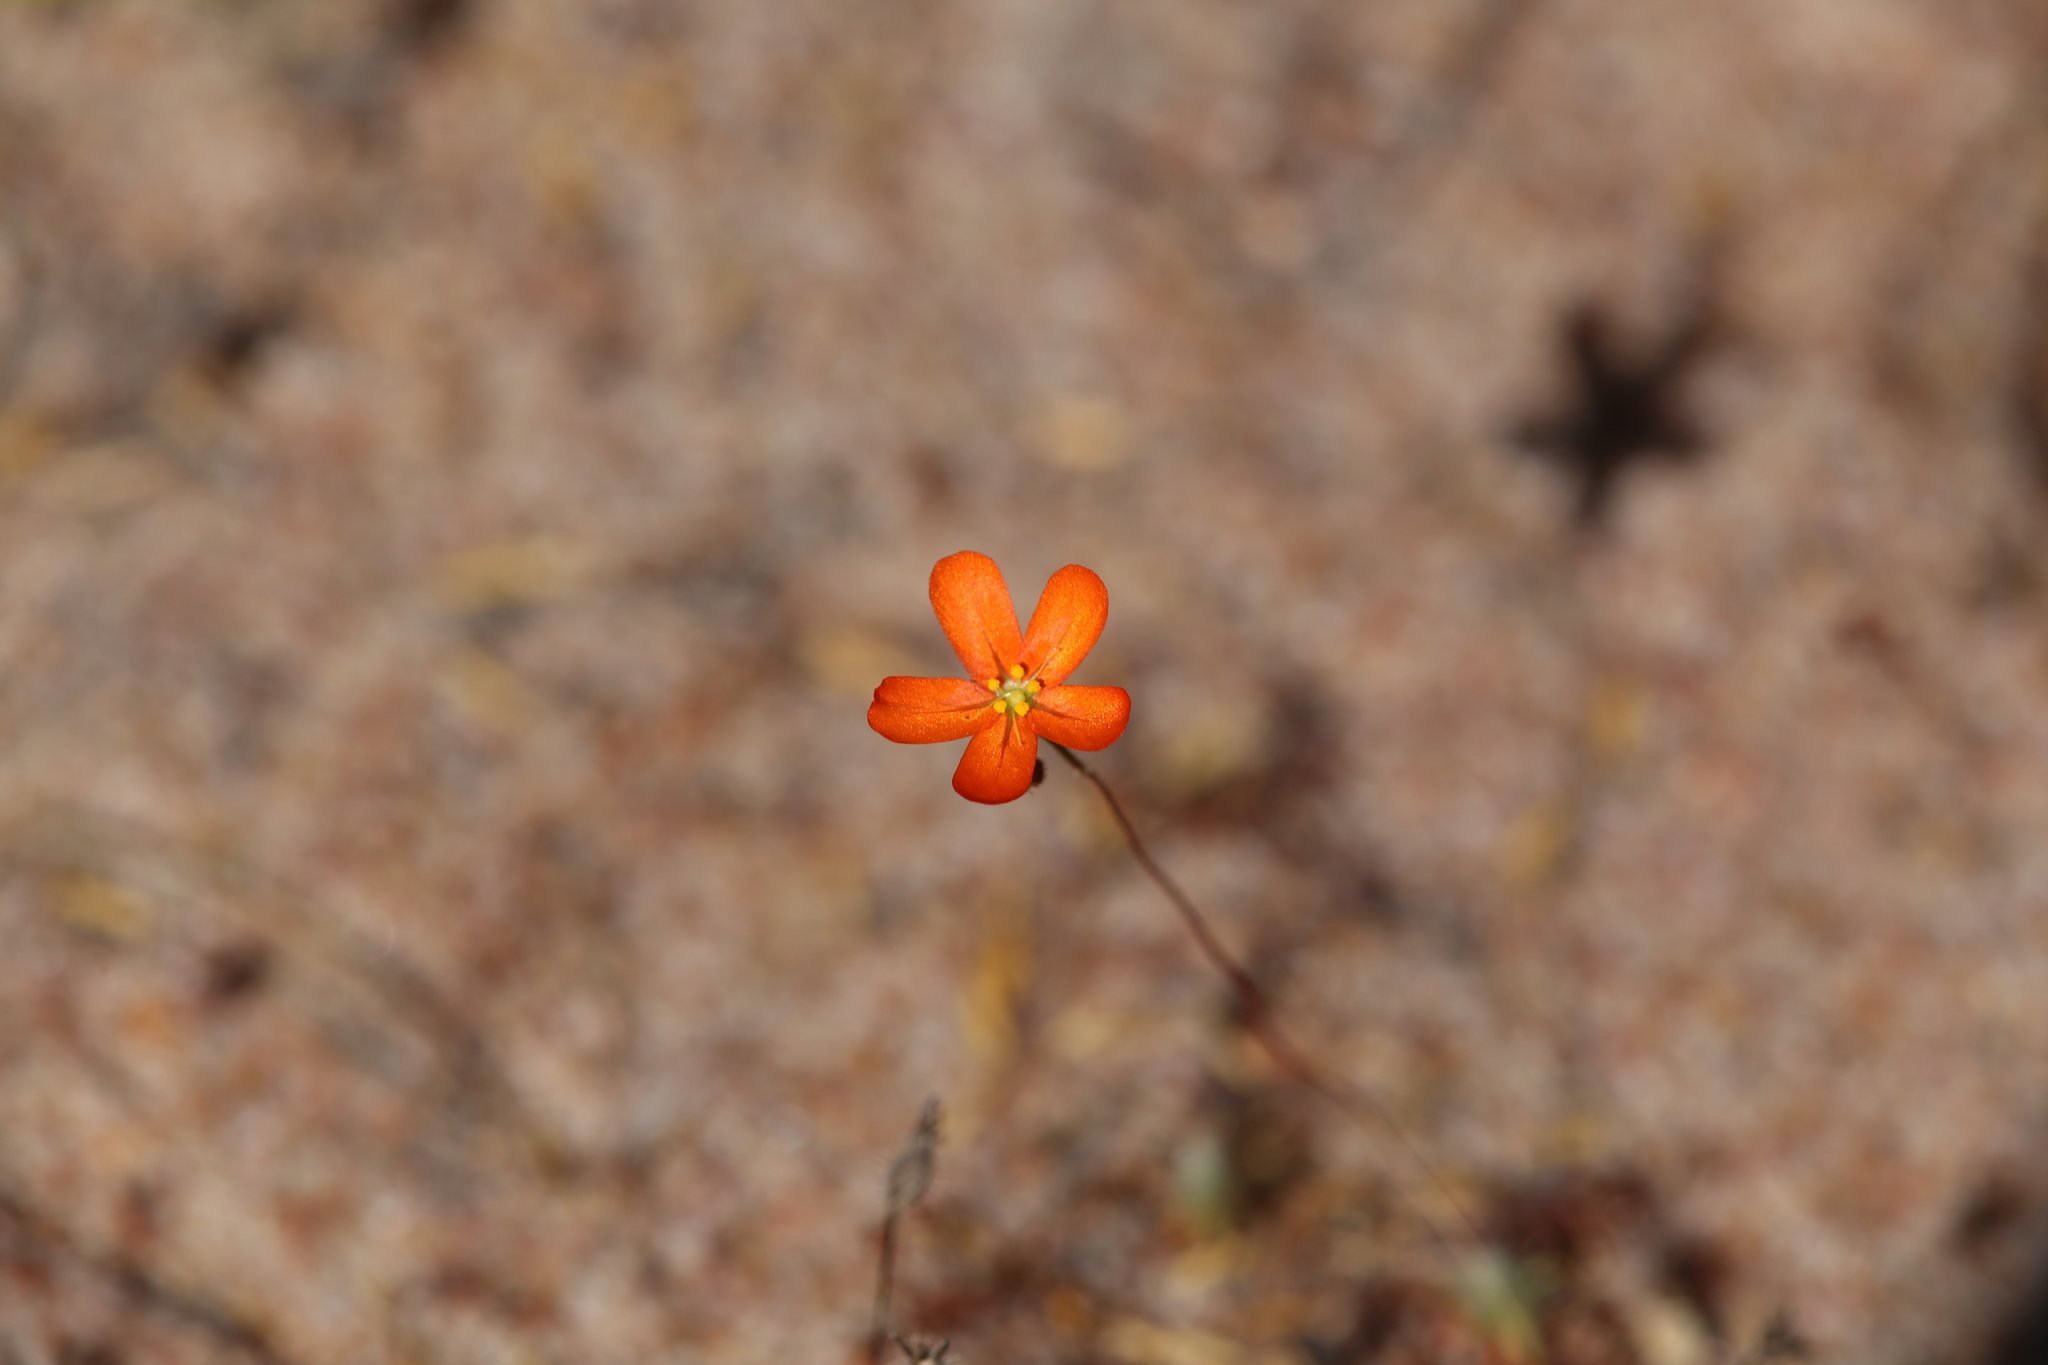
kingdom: Plantae
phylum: Tracheophyta
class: Magnoliopsida
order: Caryophyllales
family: Droseraceae
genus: Drosera
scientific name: Drosera echinoblastus
